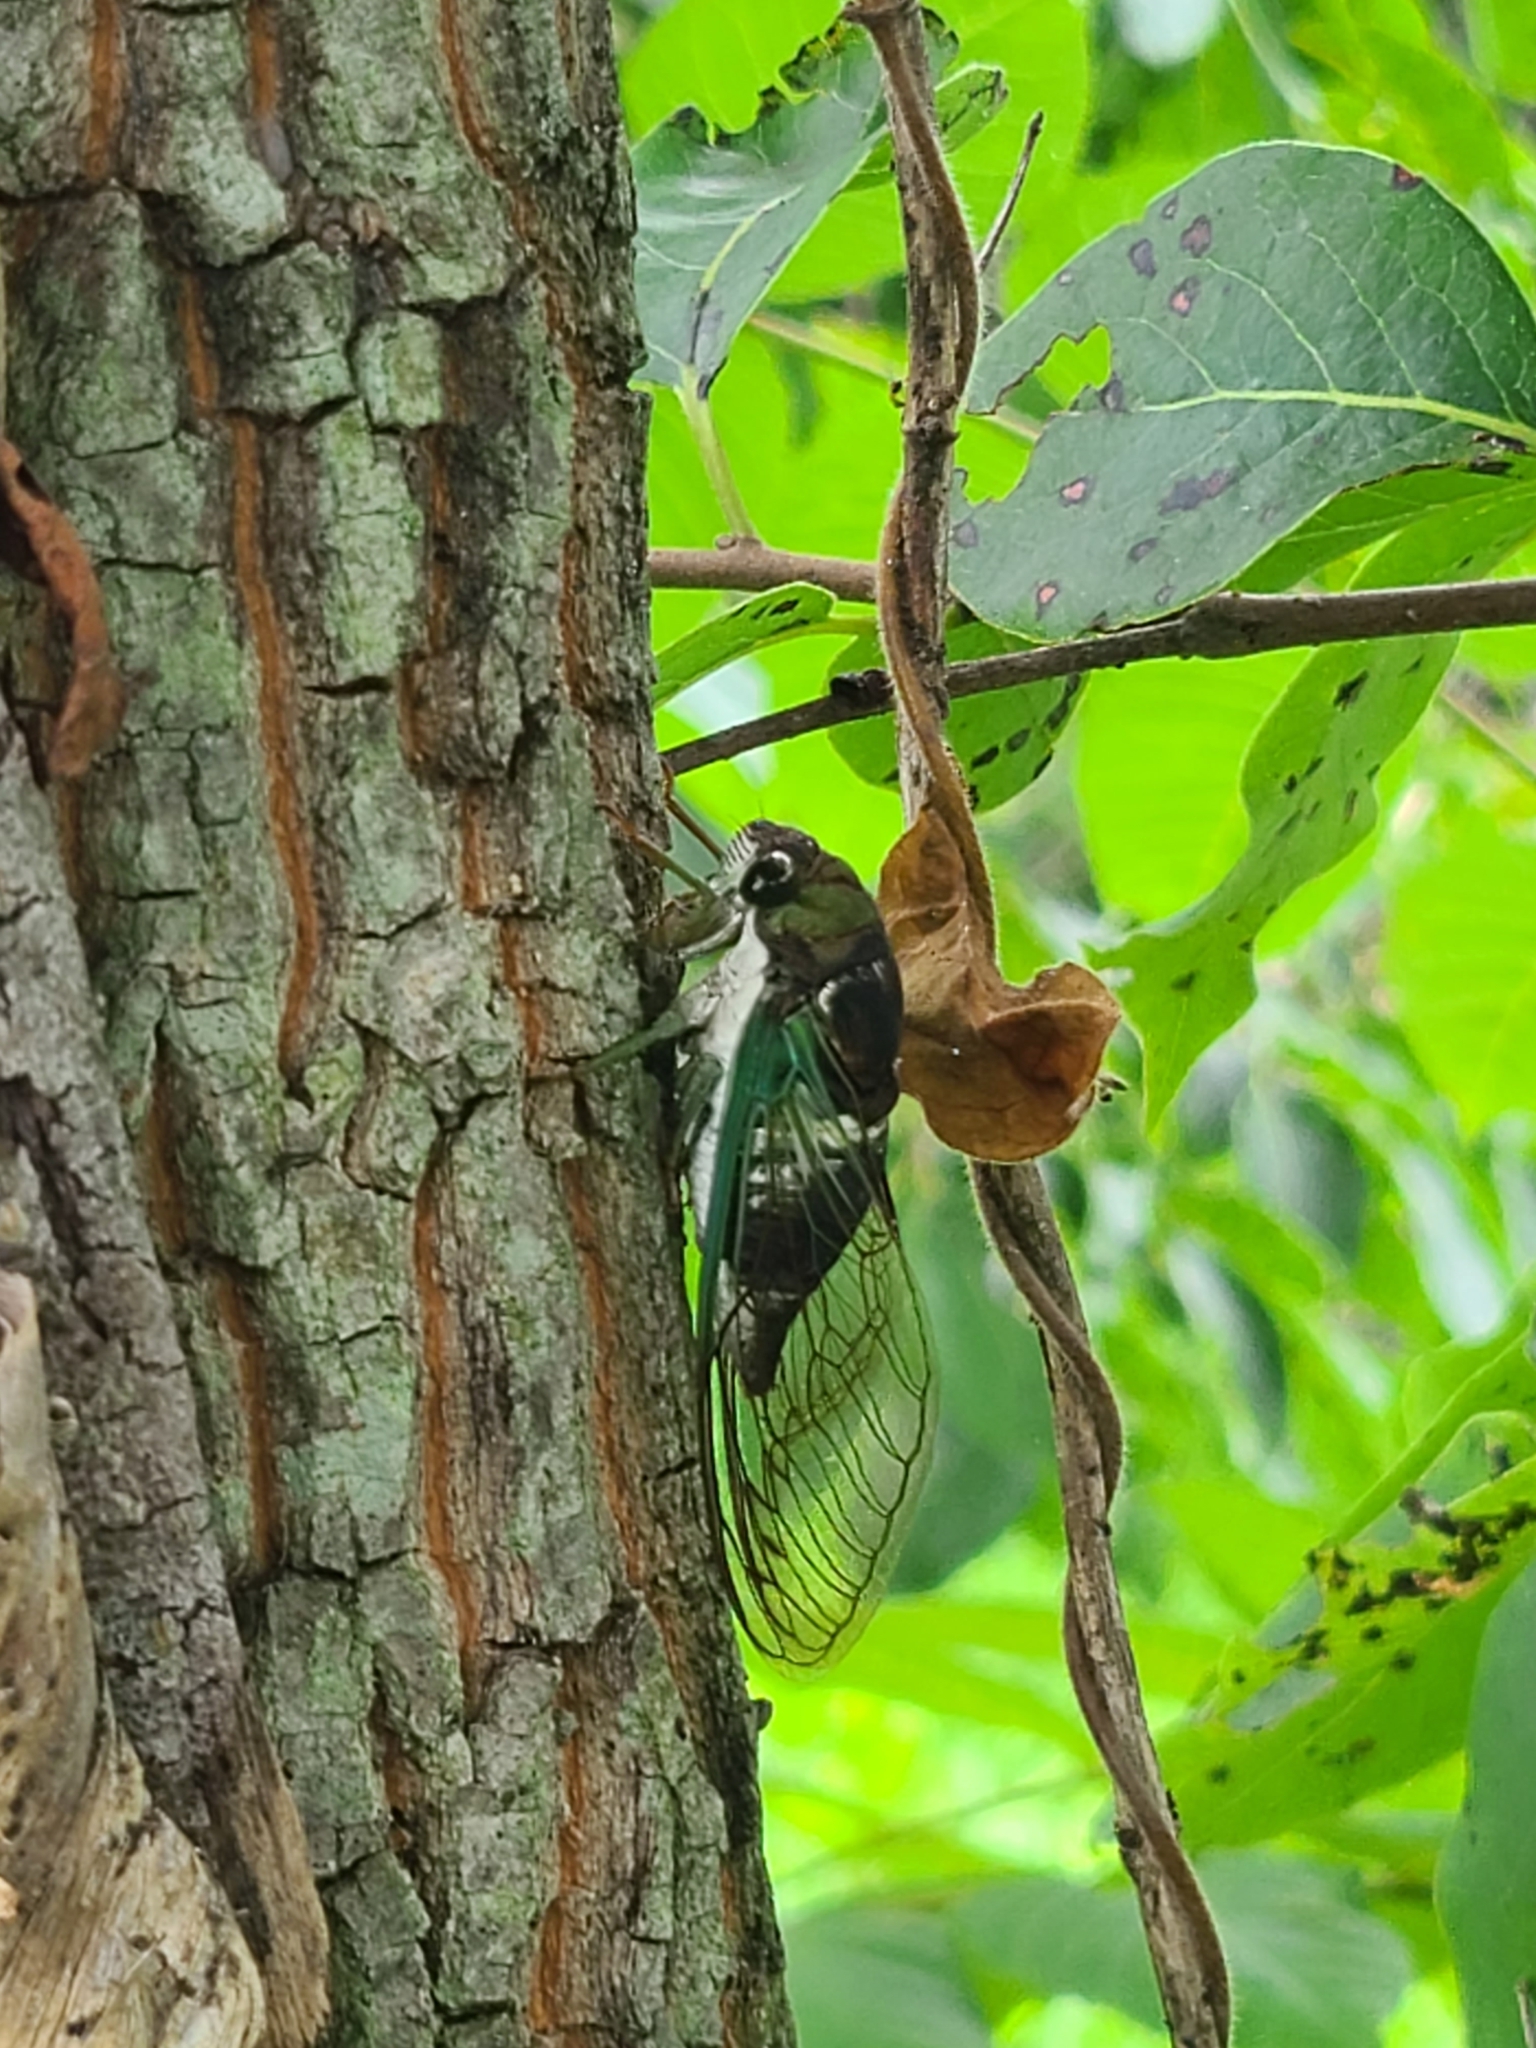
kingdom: Animalia
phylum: Arthropoda
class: Insecta
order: Hemiptera
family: Cicadidae
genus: Neotibicen
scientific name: Neotibicen tibicen
